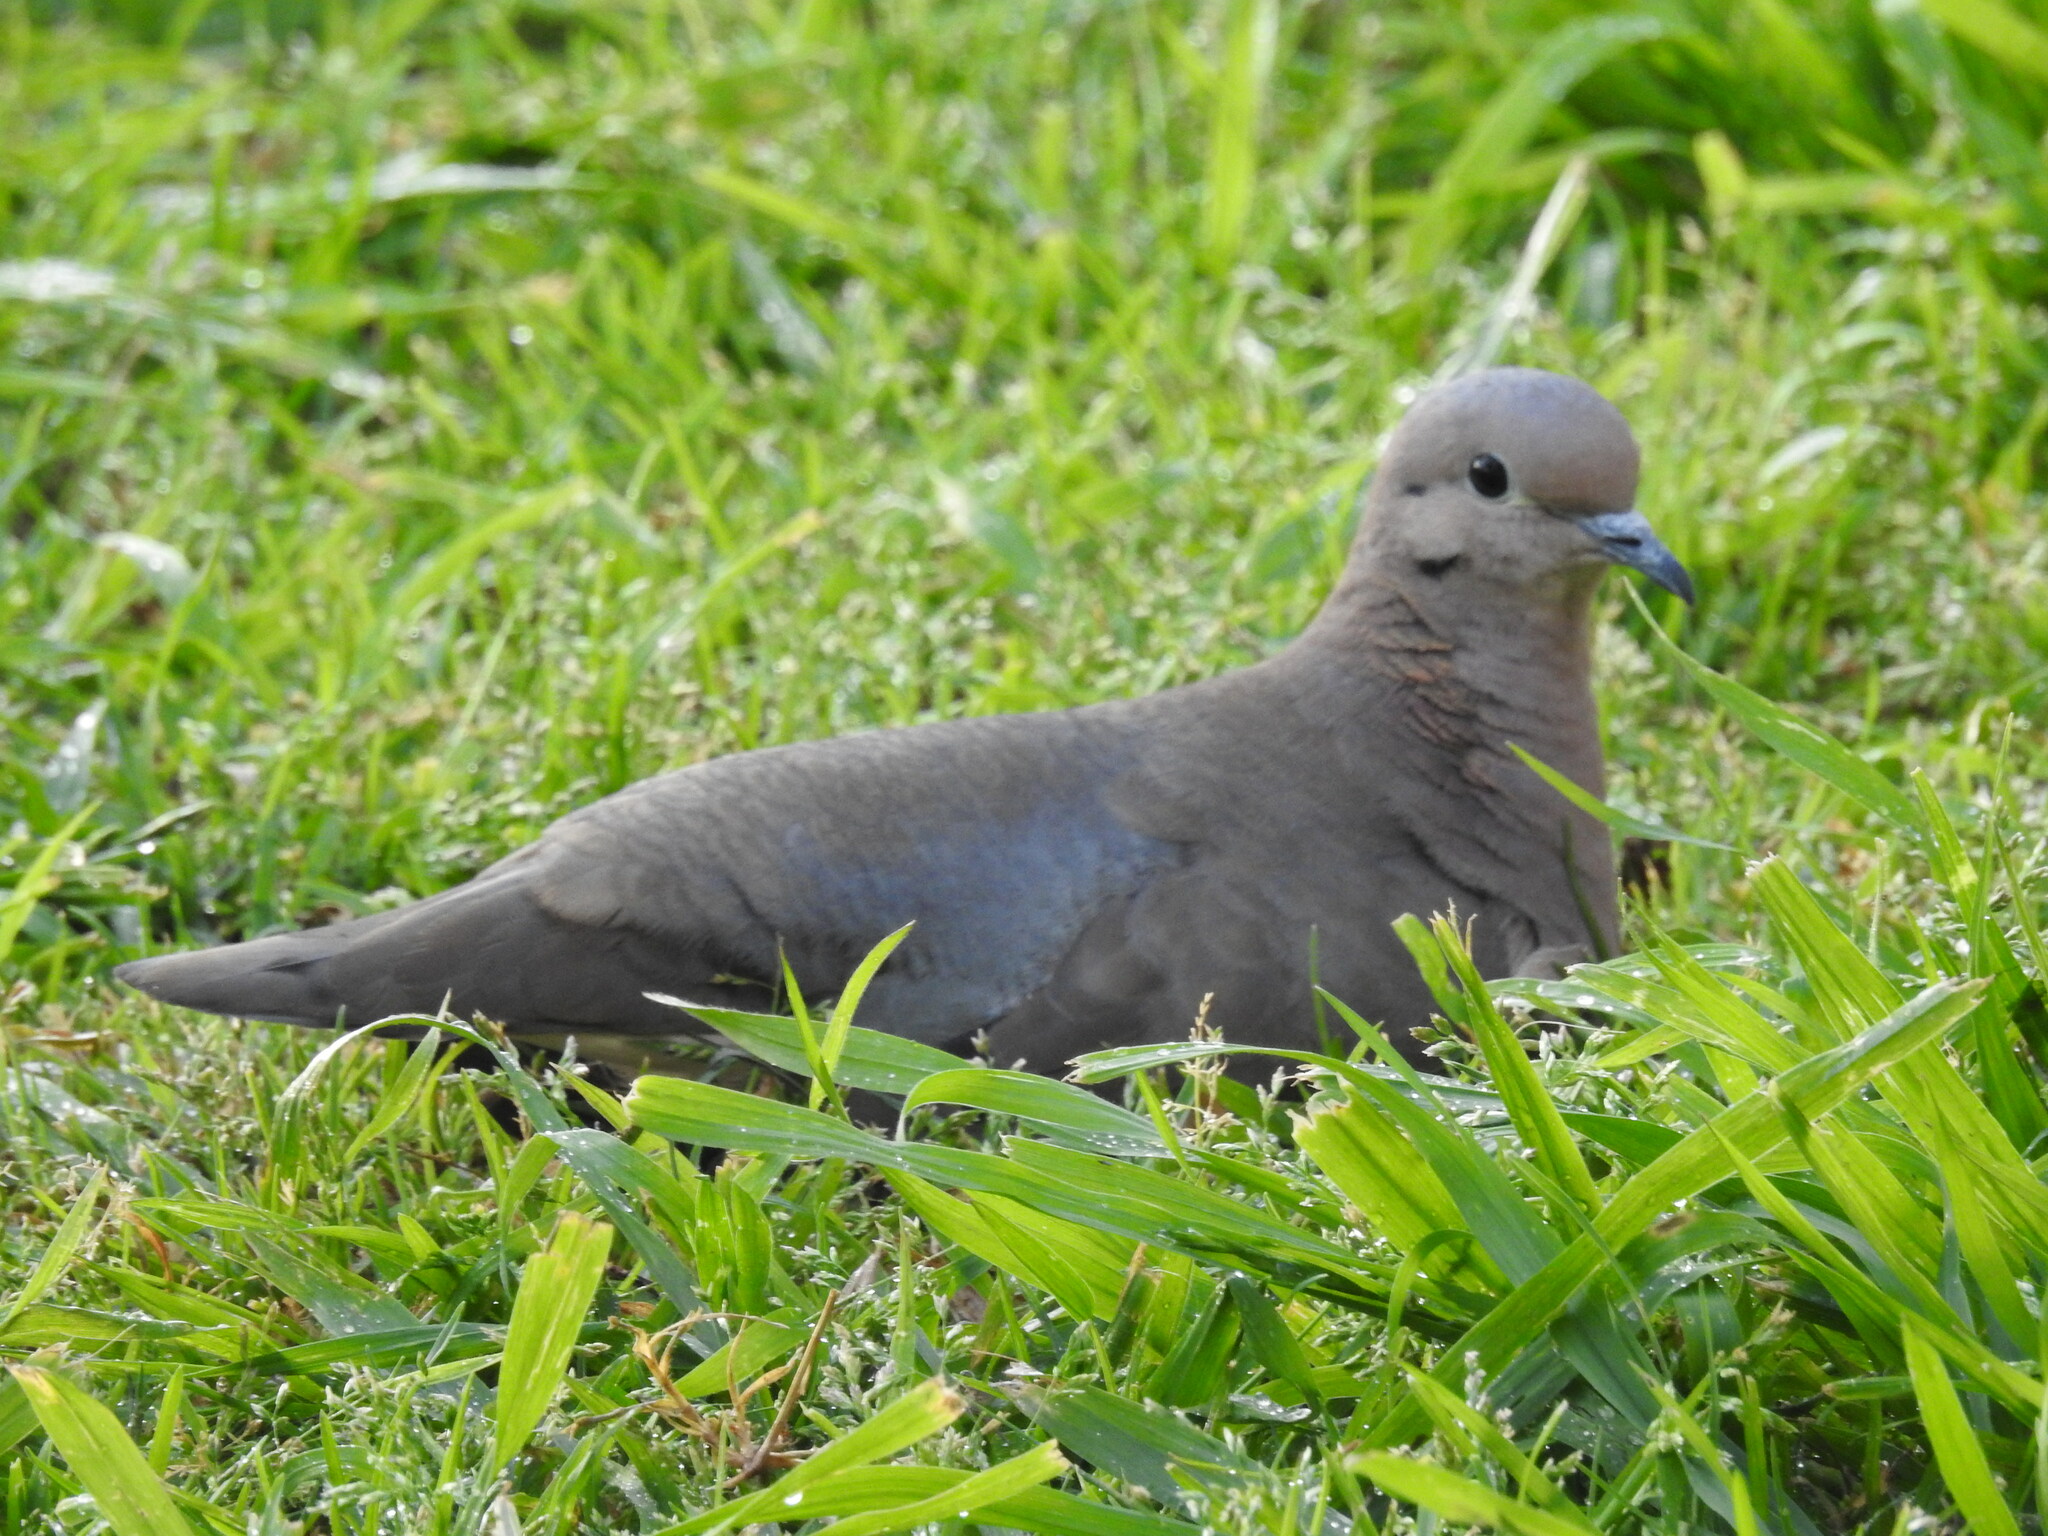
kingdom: Animalia
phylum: Chordata
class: Aves
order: Columbiformes
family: Columbidae
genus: Zenaida
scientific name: Zenaida auriculata
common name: Eared dove
